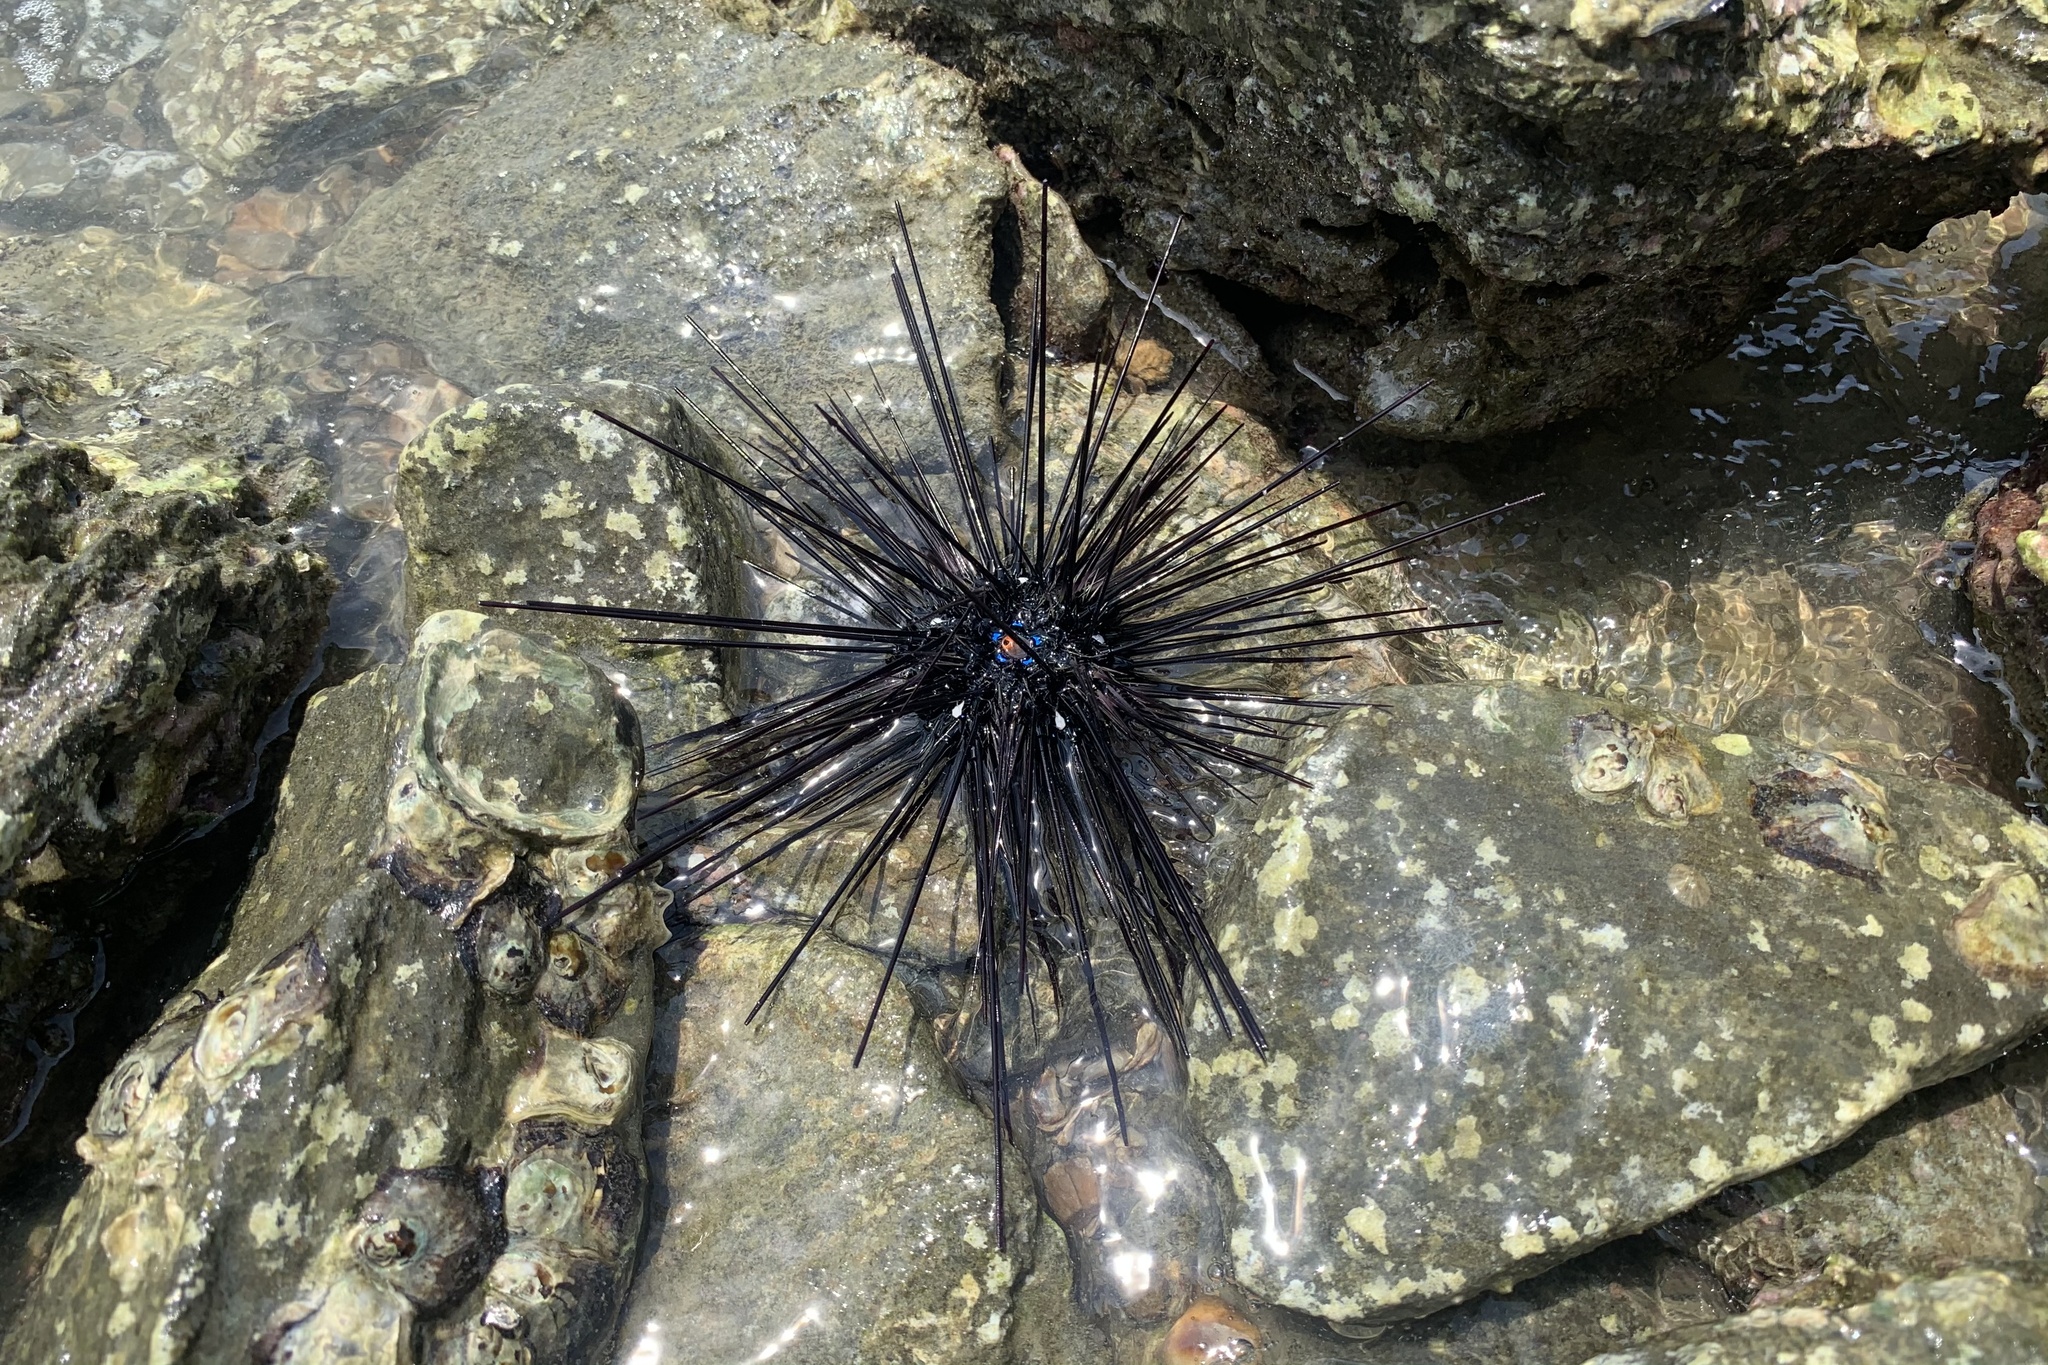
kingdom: Animalia
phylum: Echinodermata
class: Echinoidea
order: Diadematoida
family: Diadematidae
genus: Diadema
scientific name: Diadema setosum
